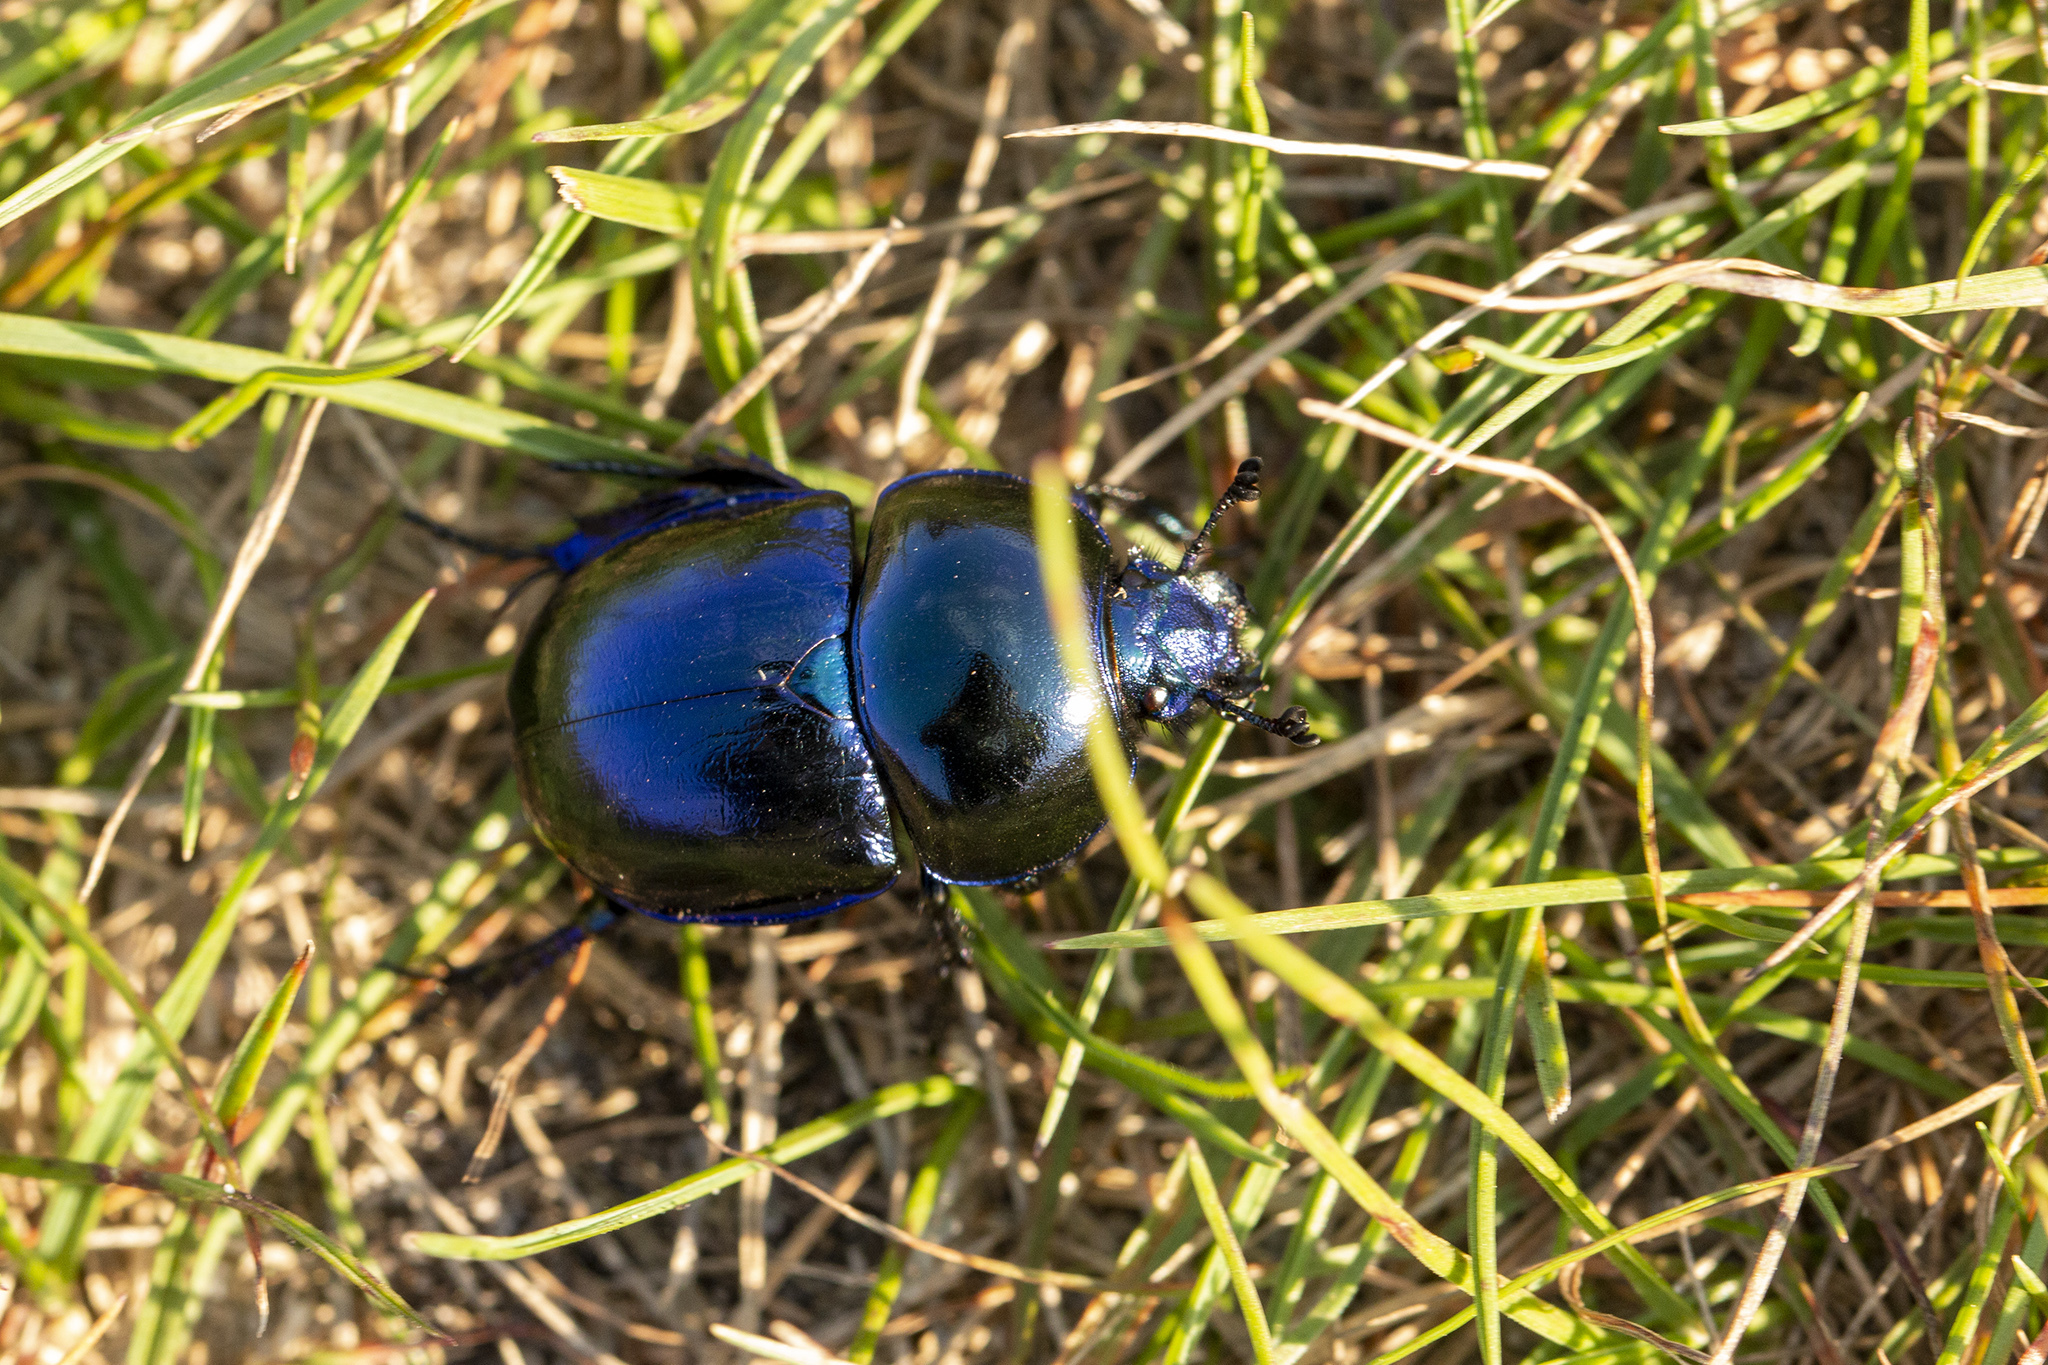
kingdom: Animalia
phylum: Arthropoda
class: Insecta
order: Coleoptera
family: Geotrupidae
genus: Trypocopris
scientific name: Trypocopris vernalis
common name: Spring dumbledor
